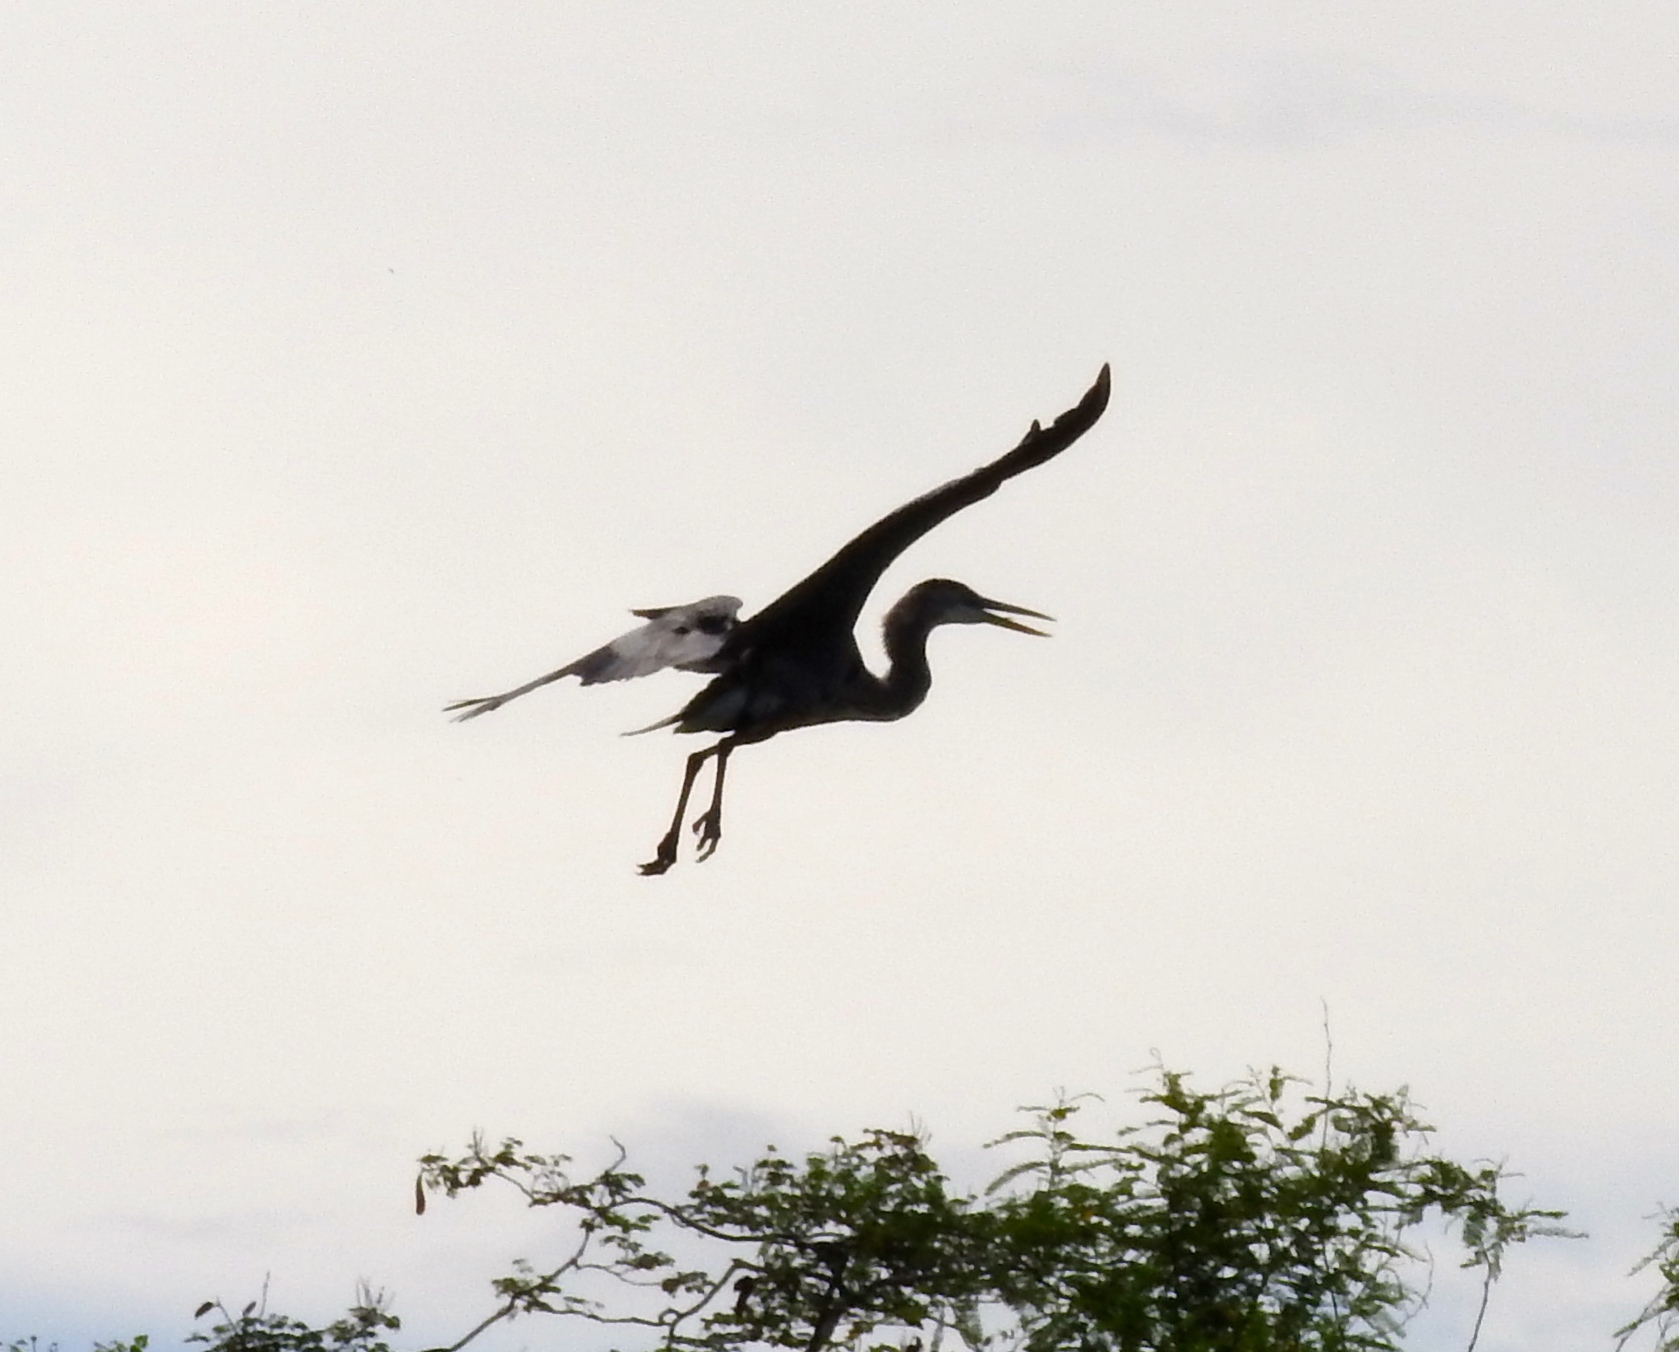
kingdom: Animalia
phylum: Chordata
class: Aves
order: Pelecaniformes
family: Ardeidae
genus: Ardea
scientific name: Ardea herodias
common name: Great blue heron
